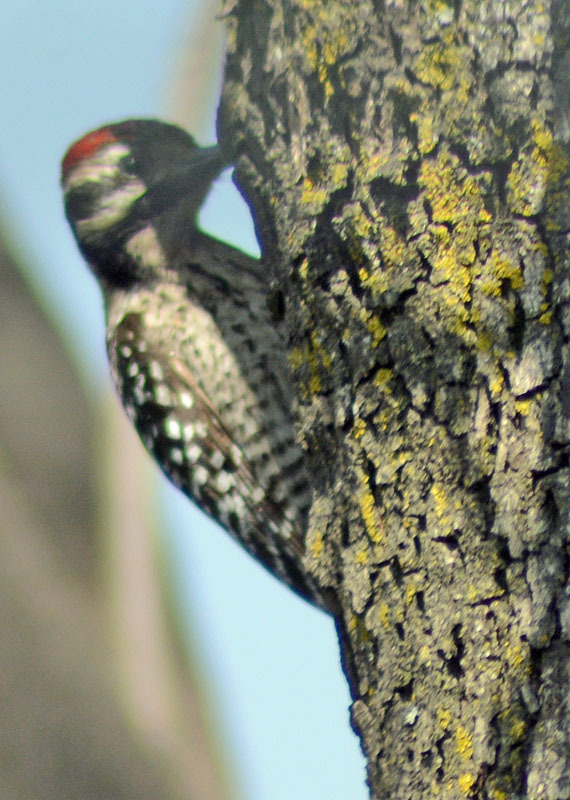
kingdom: Animalia
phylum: Chordata
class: Aves
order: Piciformes
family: Picidae
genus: Dryobates
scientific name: Dryobates scalaris
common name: Ladder-backed woodpecker
